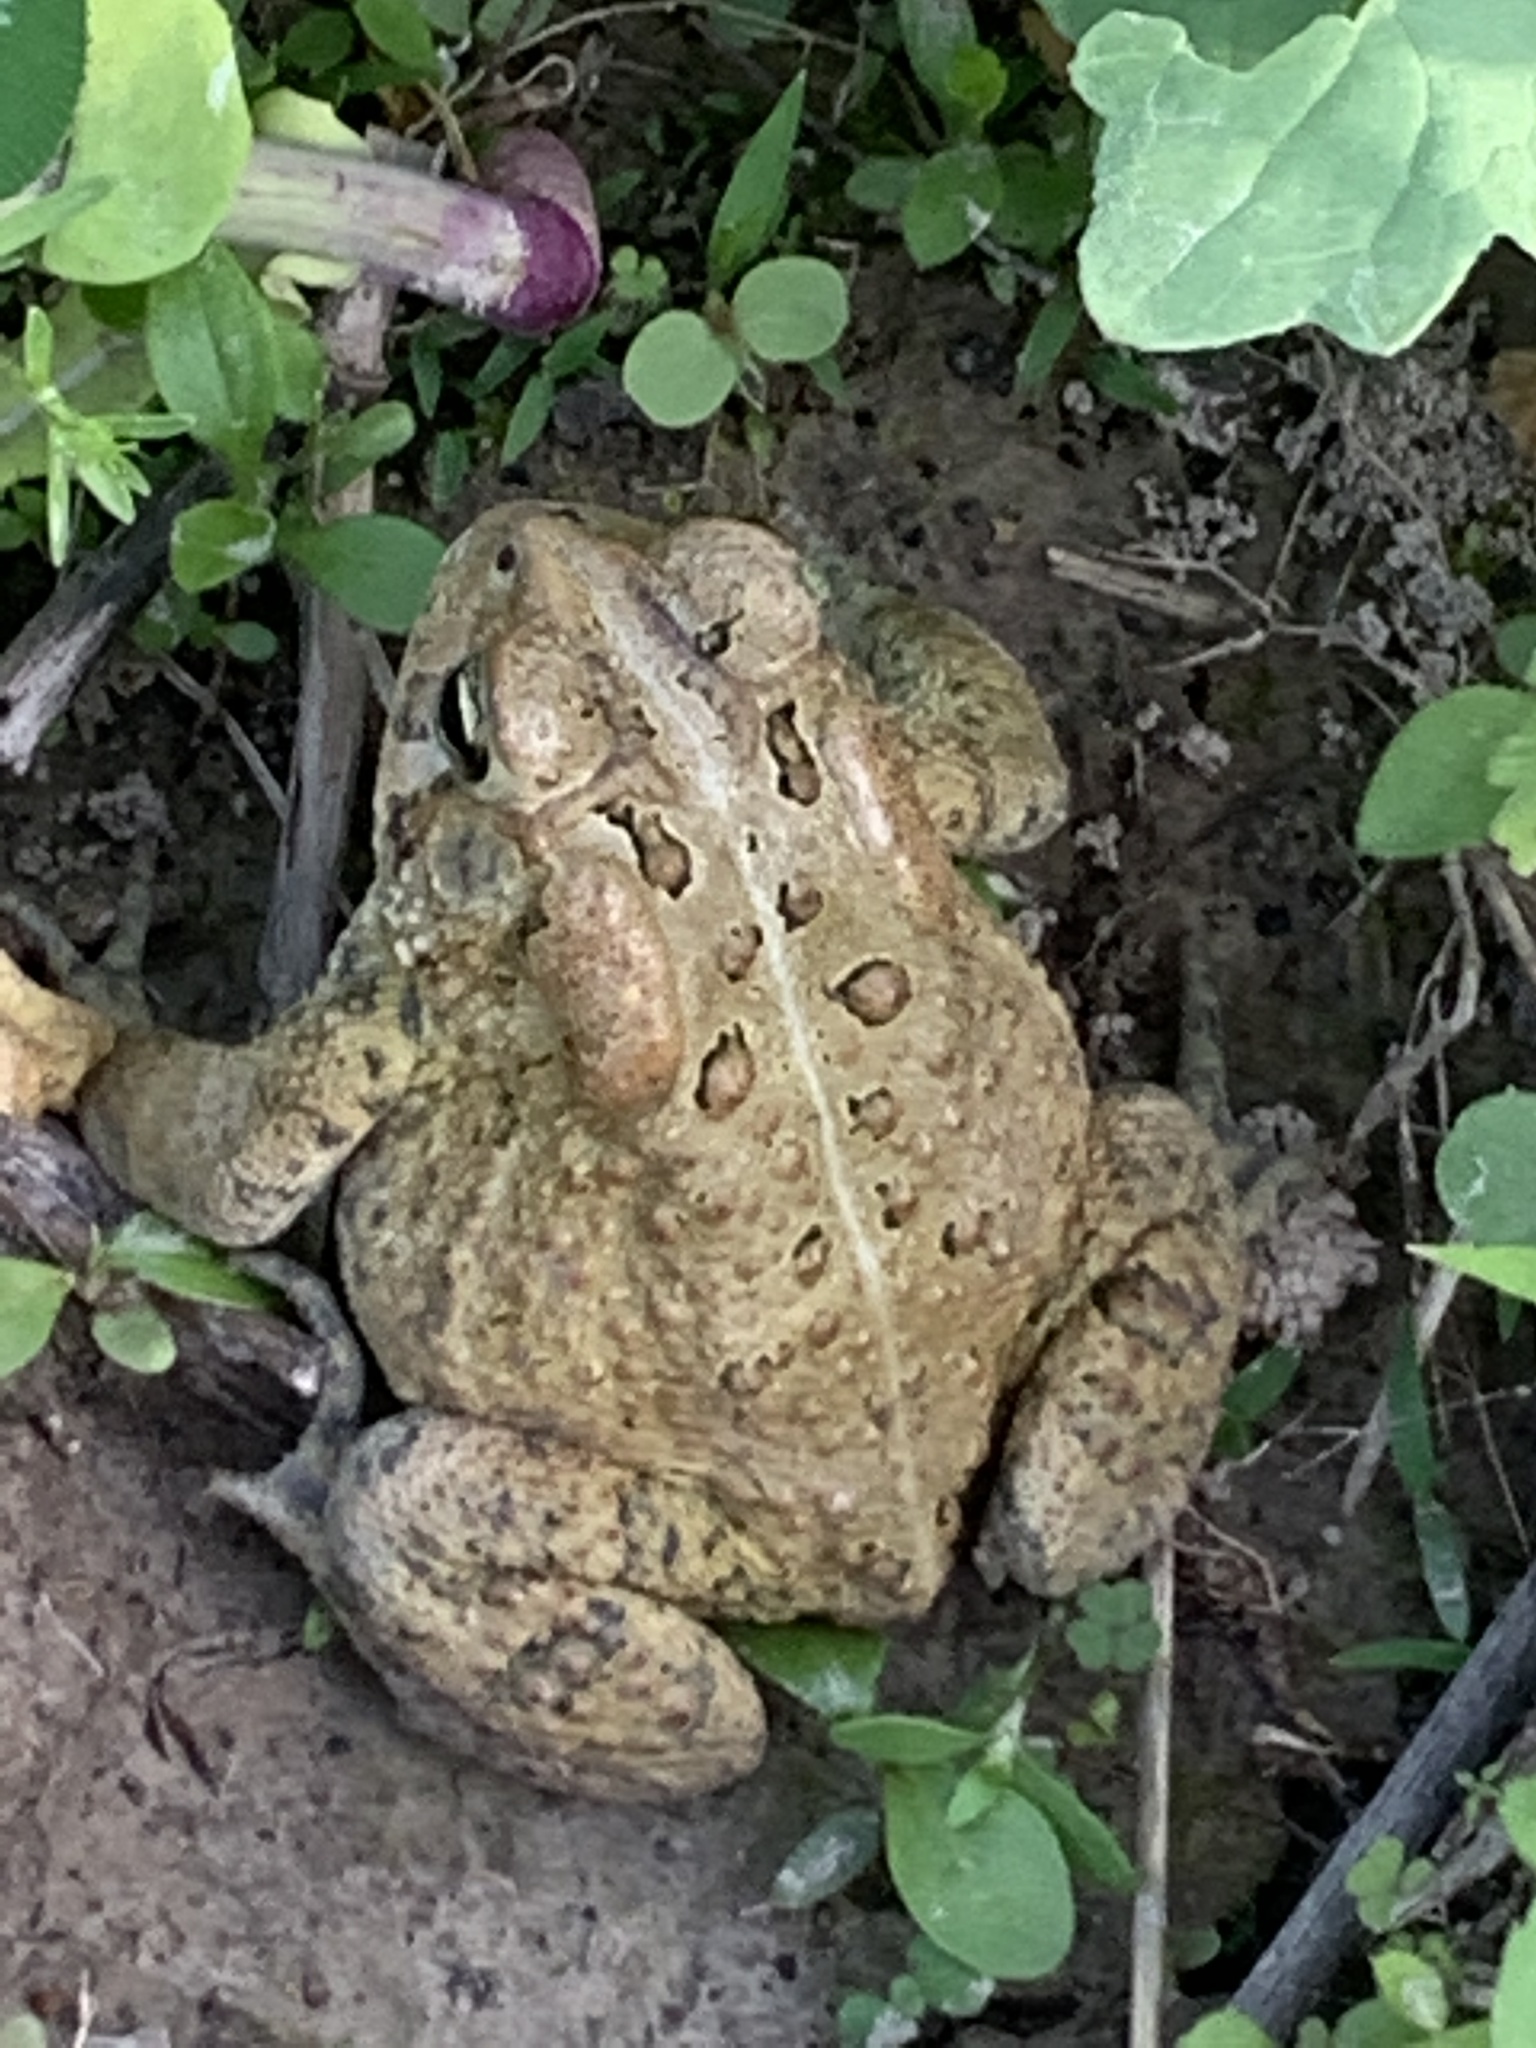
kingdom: Animalia
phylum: Chordata
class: Amphibia
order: Anura
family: Bufonidae
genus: Anaxyrus
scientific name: Anaxyrus americanus
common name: American toad
